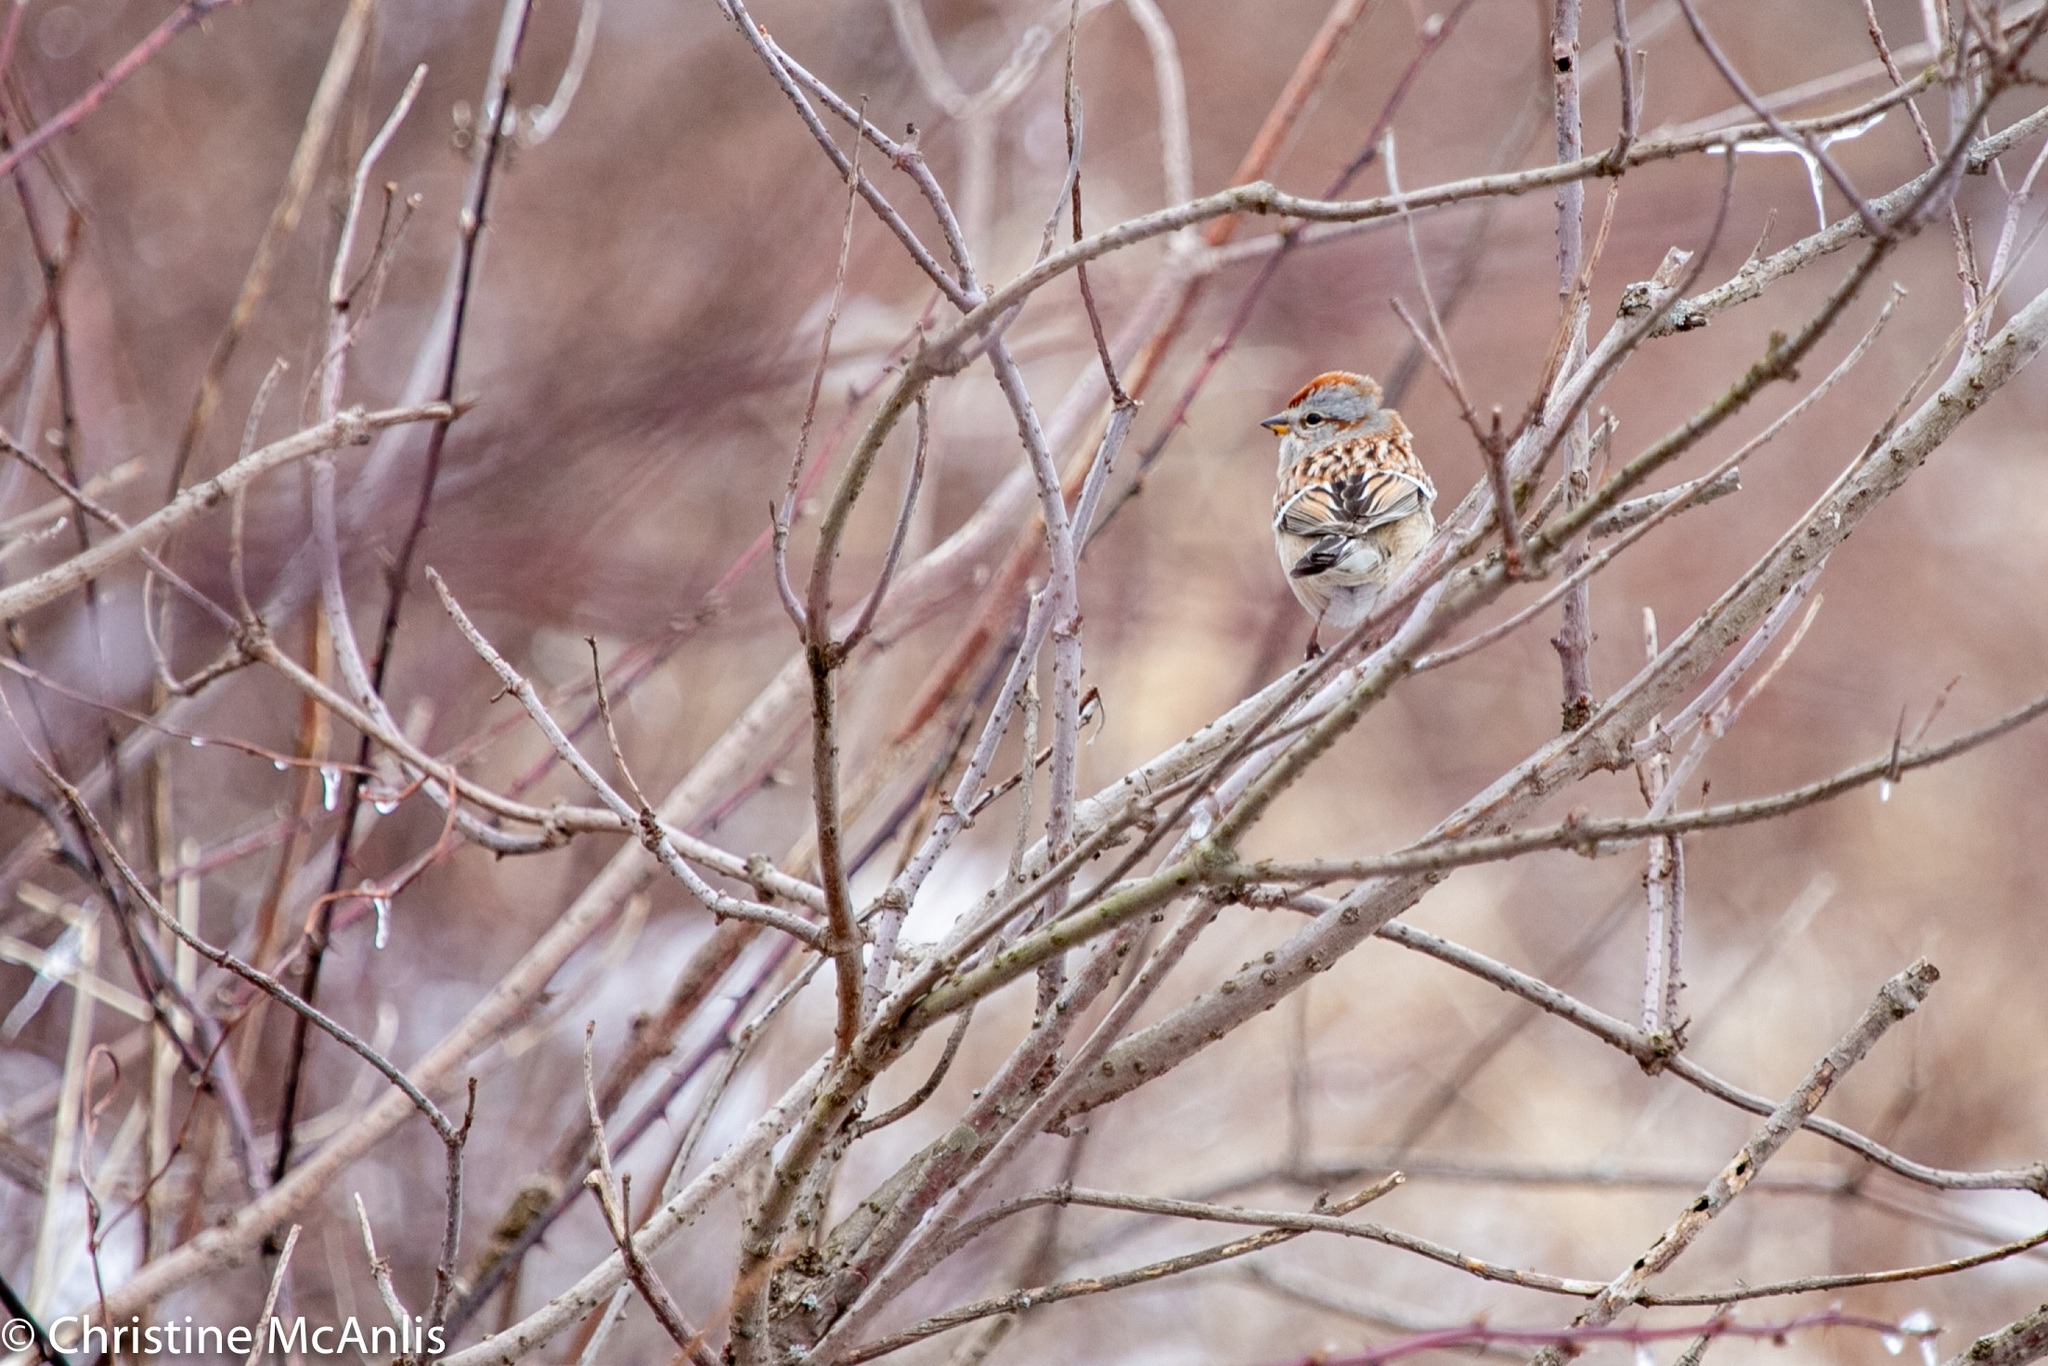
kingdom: Animalia
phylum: Chordata
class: Aves
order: Passeriformes
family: Passerellidae
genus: Spizelloides
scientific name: Spizelloides arborea
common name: American tree sparrow
